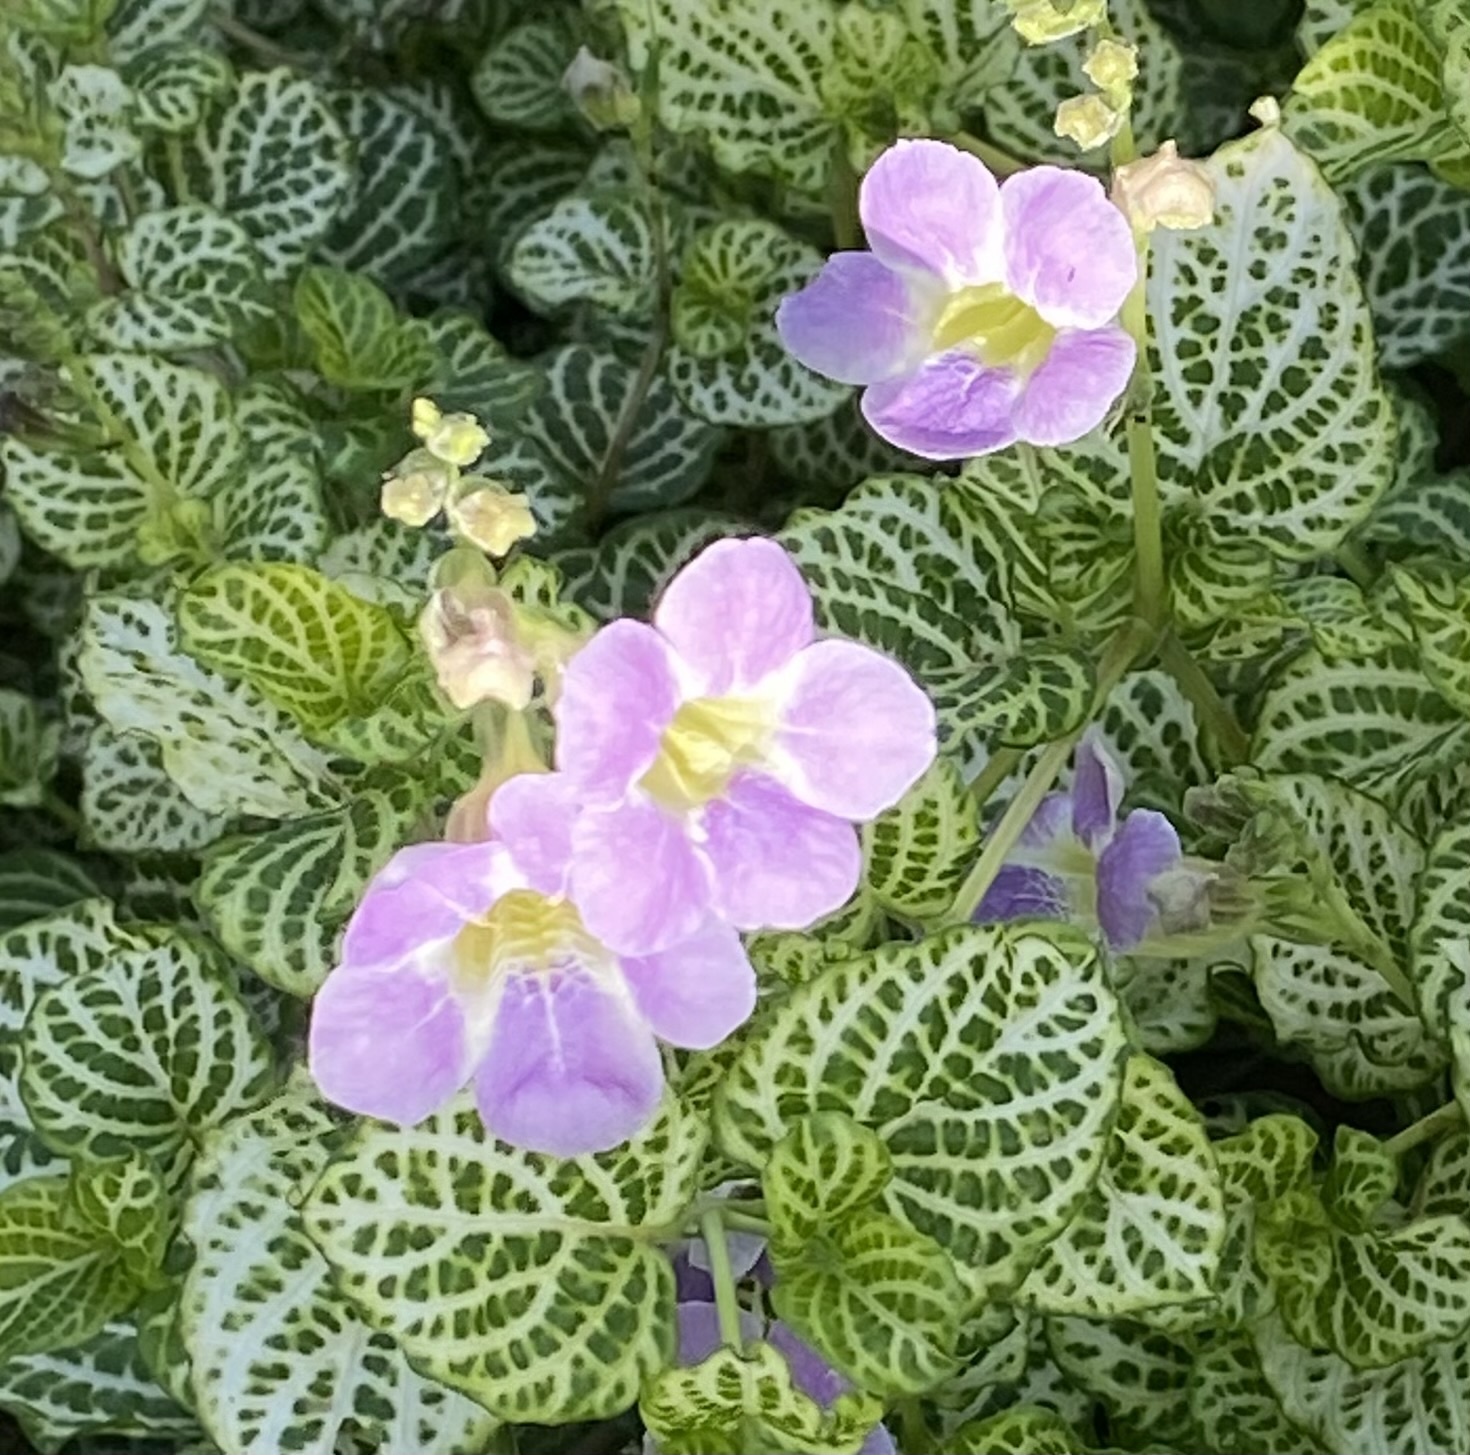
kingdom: Plantae
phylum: Tracheophyta
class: Magnoliopsida
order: Lamiales
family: Acanthaceae
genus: Asystasia
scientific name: Asystasia gangetica
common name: Chinese violet
